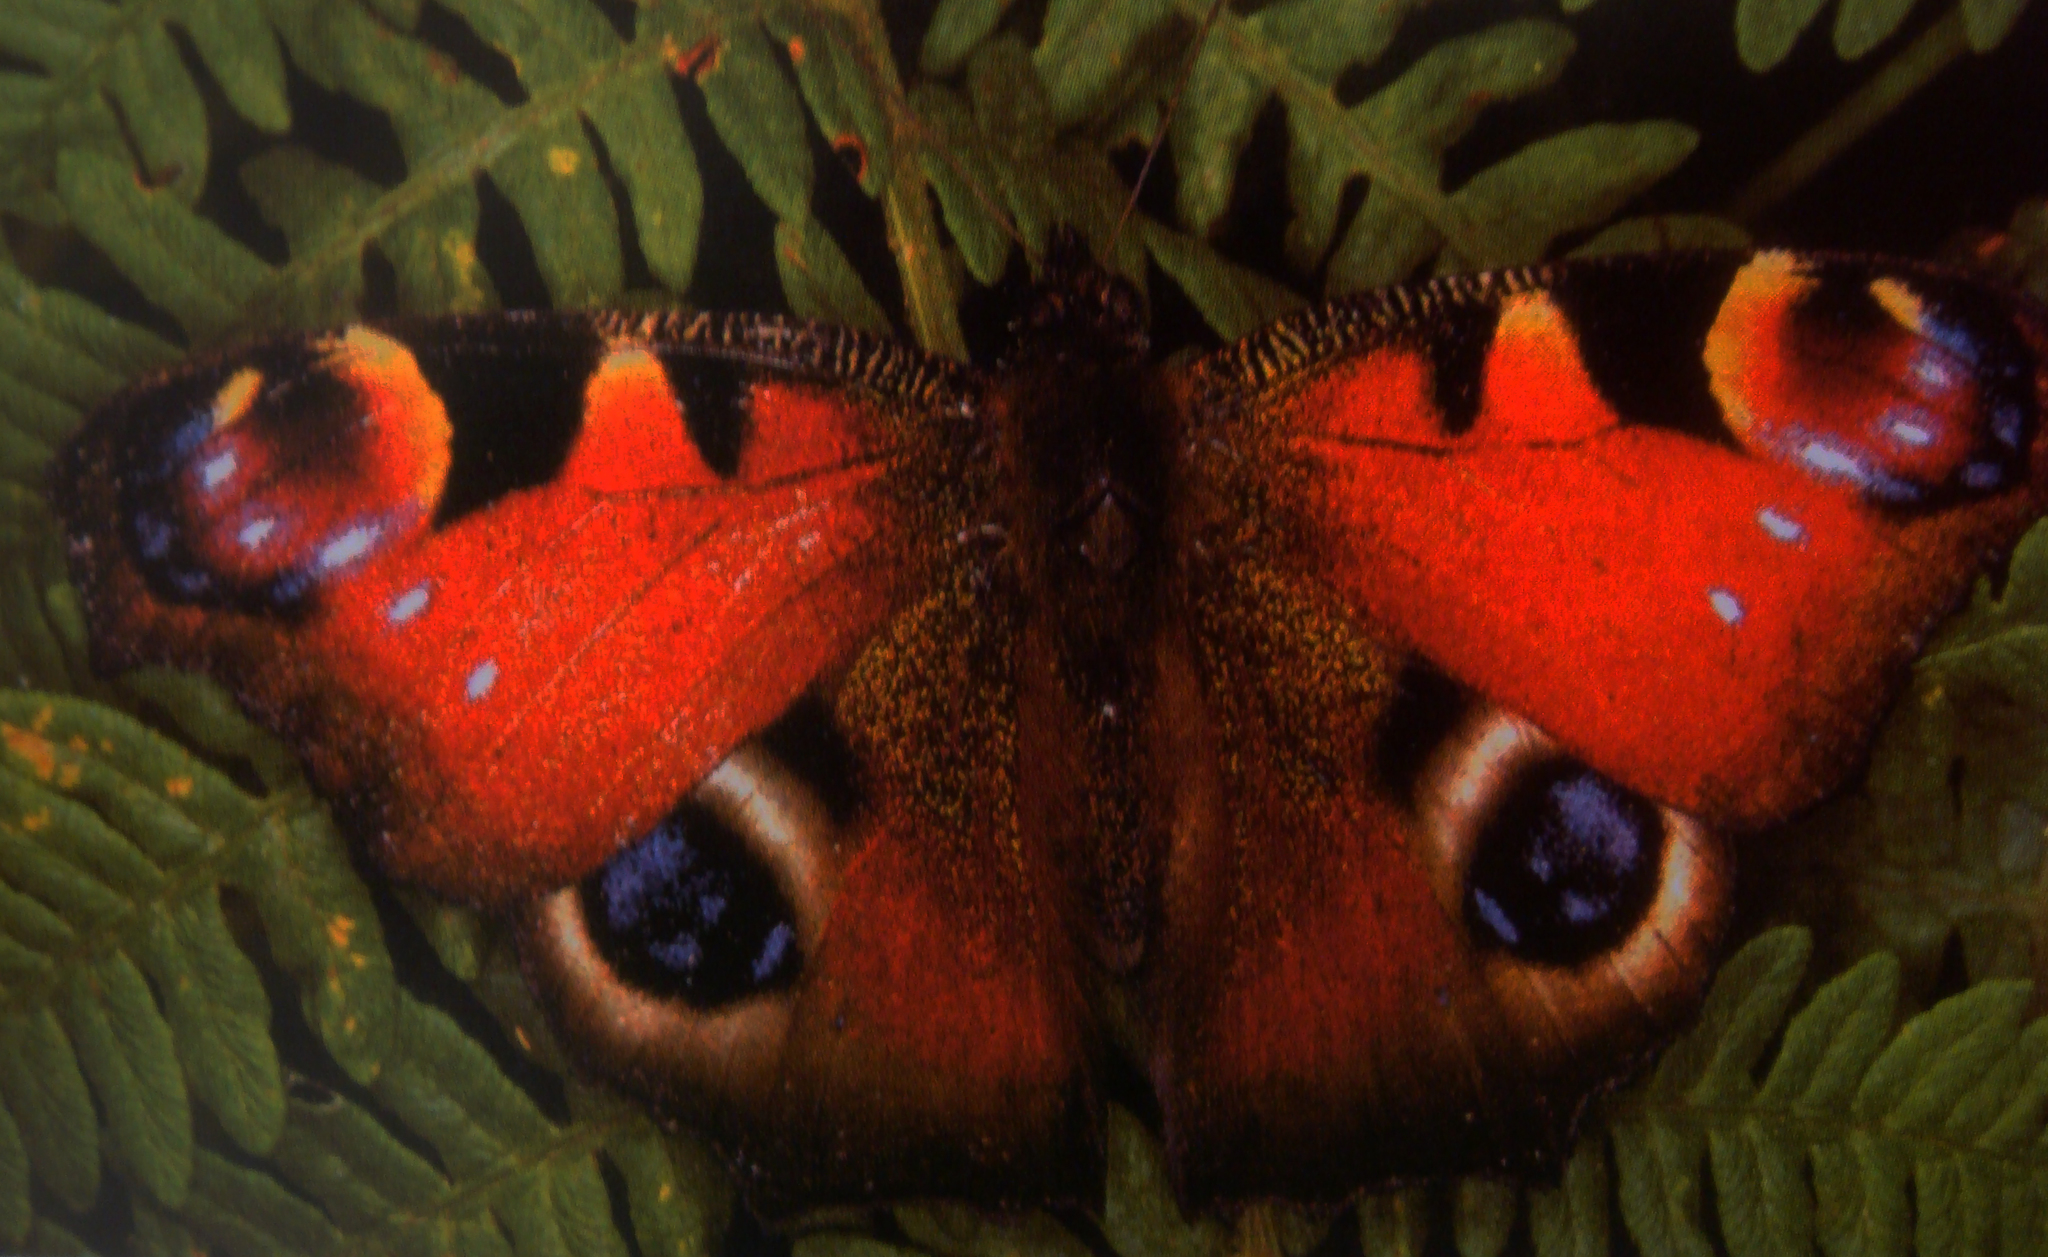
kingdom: Animalia
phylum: Arthropoda
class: Insecta
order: Lepidoptera
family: Nymphalidae
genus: Aglais
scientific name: Aglais io
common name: Peacock
